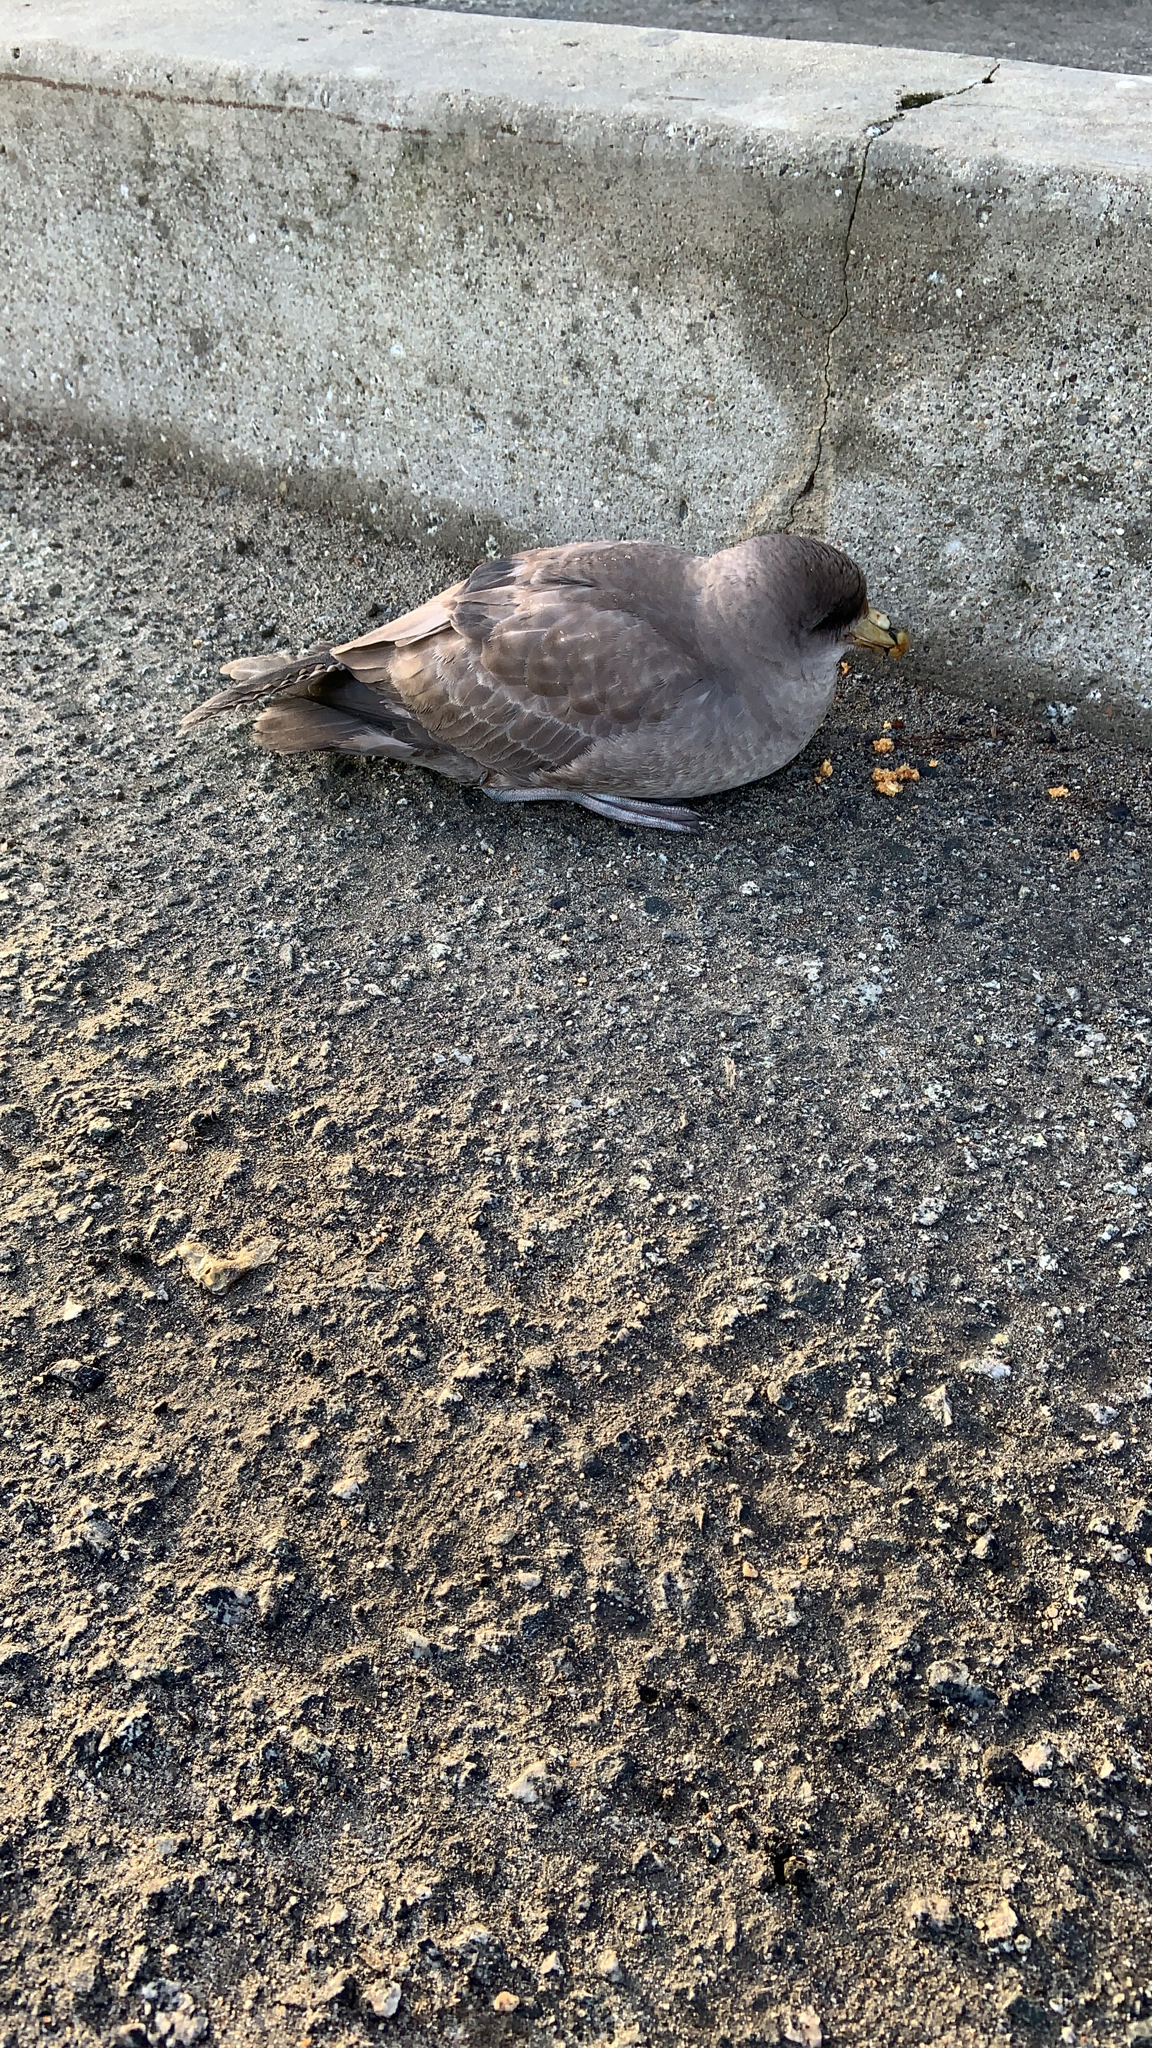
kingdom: Animalia
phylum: Chordata
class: Aves
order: Procellariiformes
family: Procellariidae
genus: Fulmarus
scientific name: Fulmarus glacialis
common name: Northern fulmar
